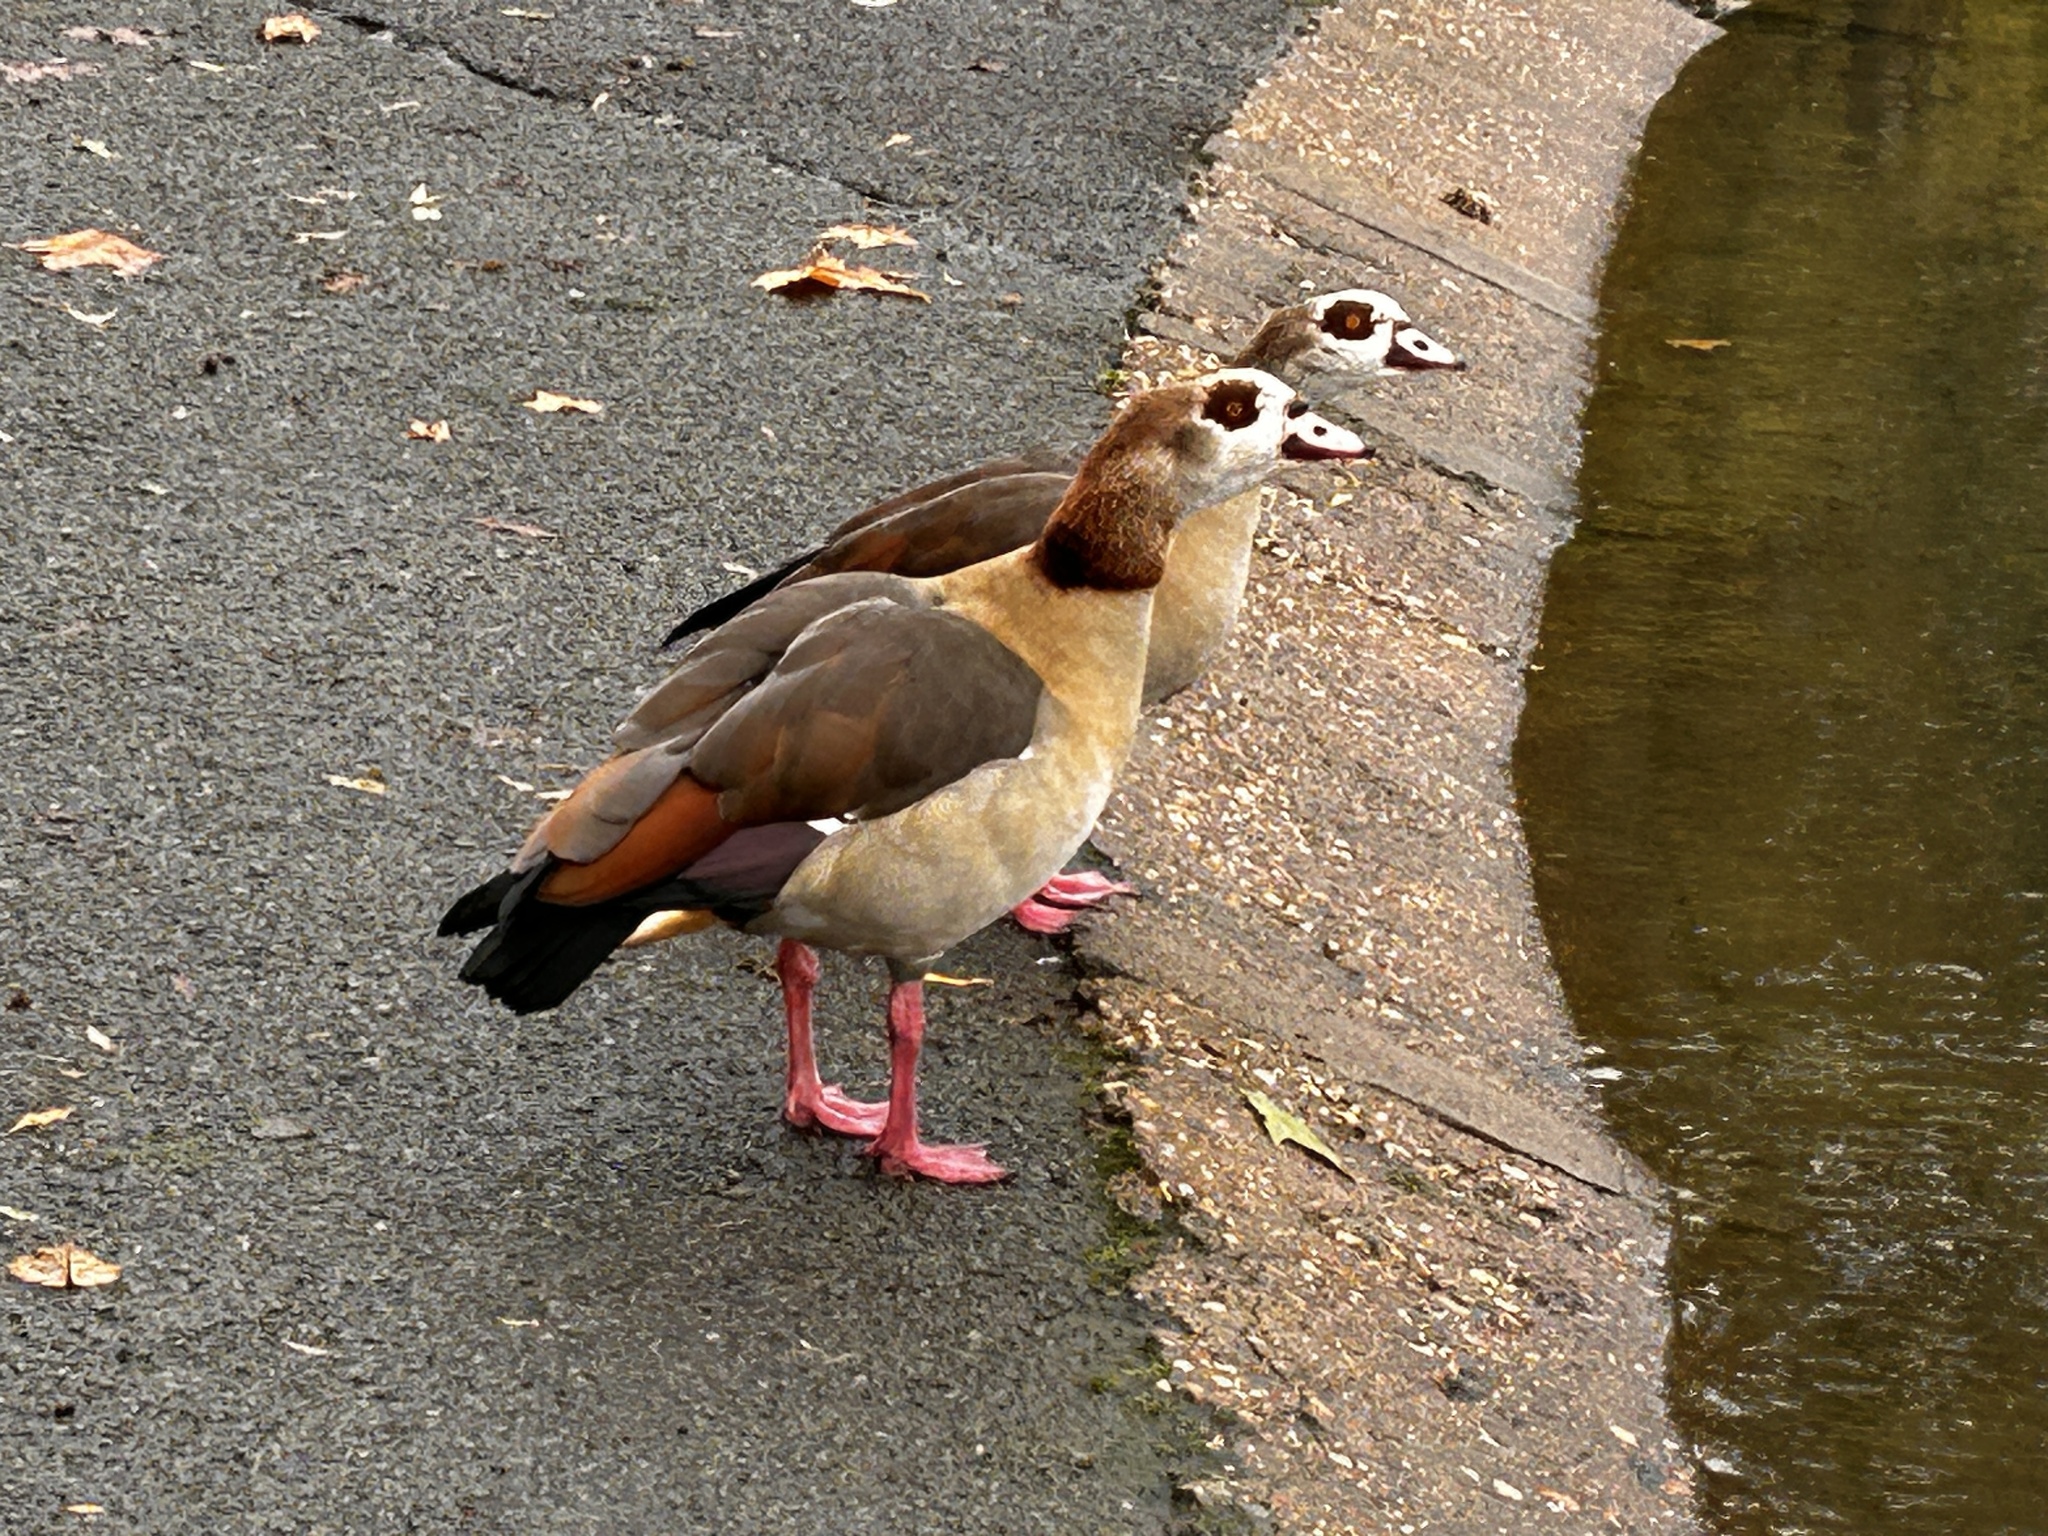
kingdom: Animalia
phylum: Chordata
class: Aves
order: Anseriformes
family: Anatidae
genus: Alopochen
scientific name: Alopochen aegyptiaca
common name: Egyptian goose
